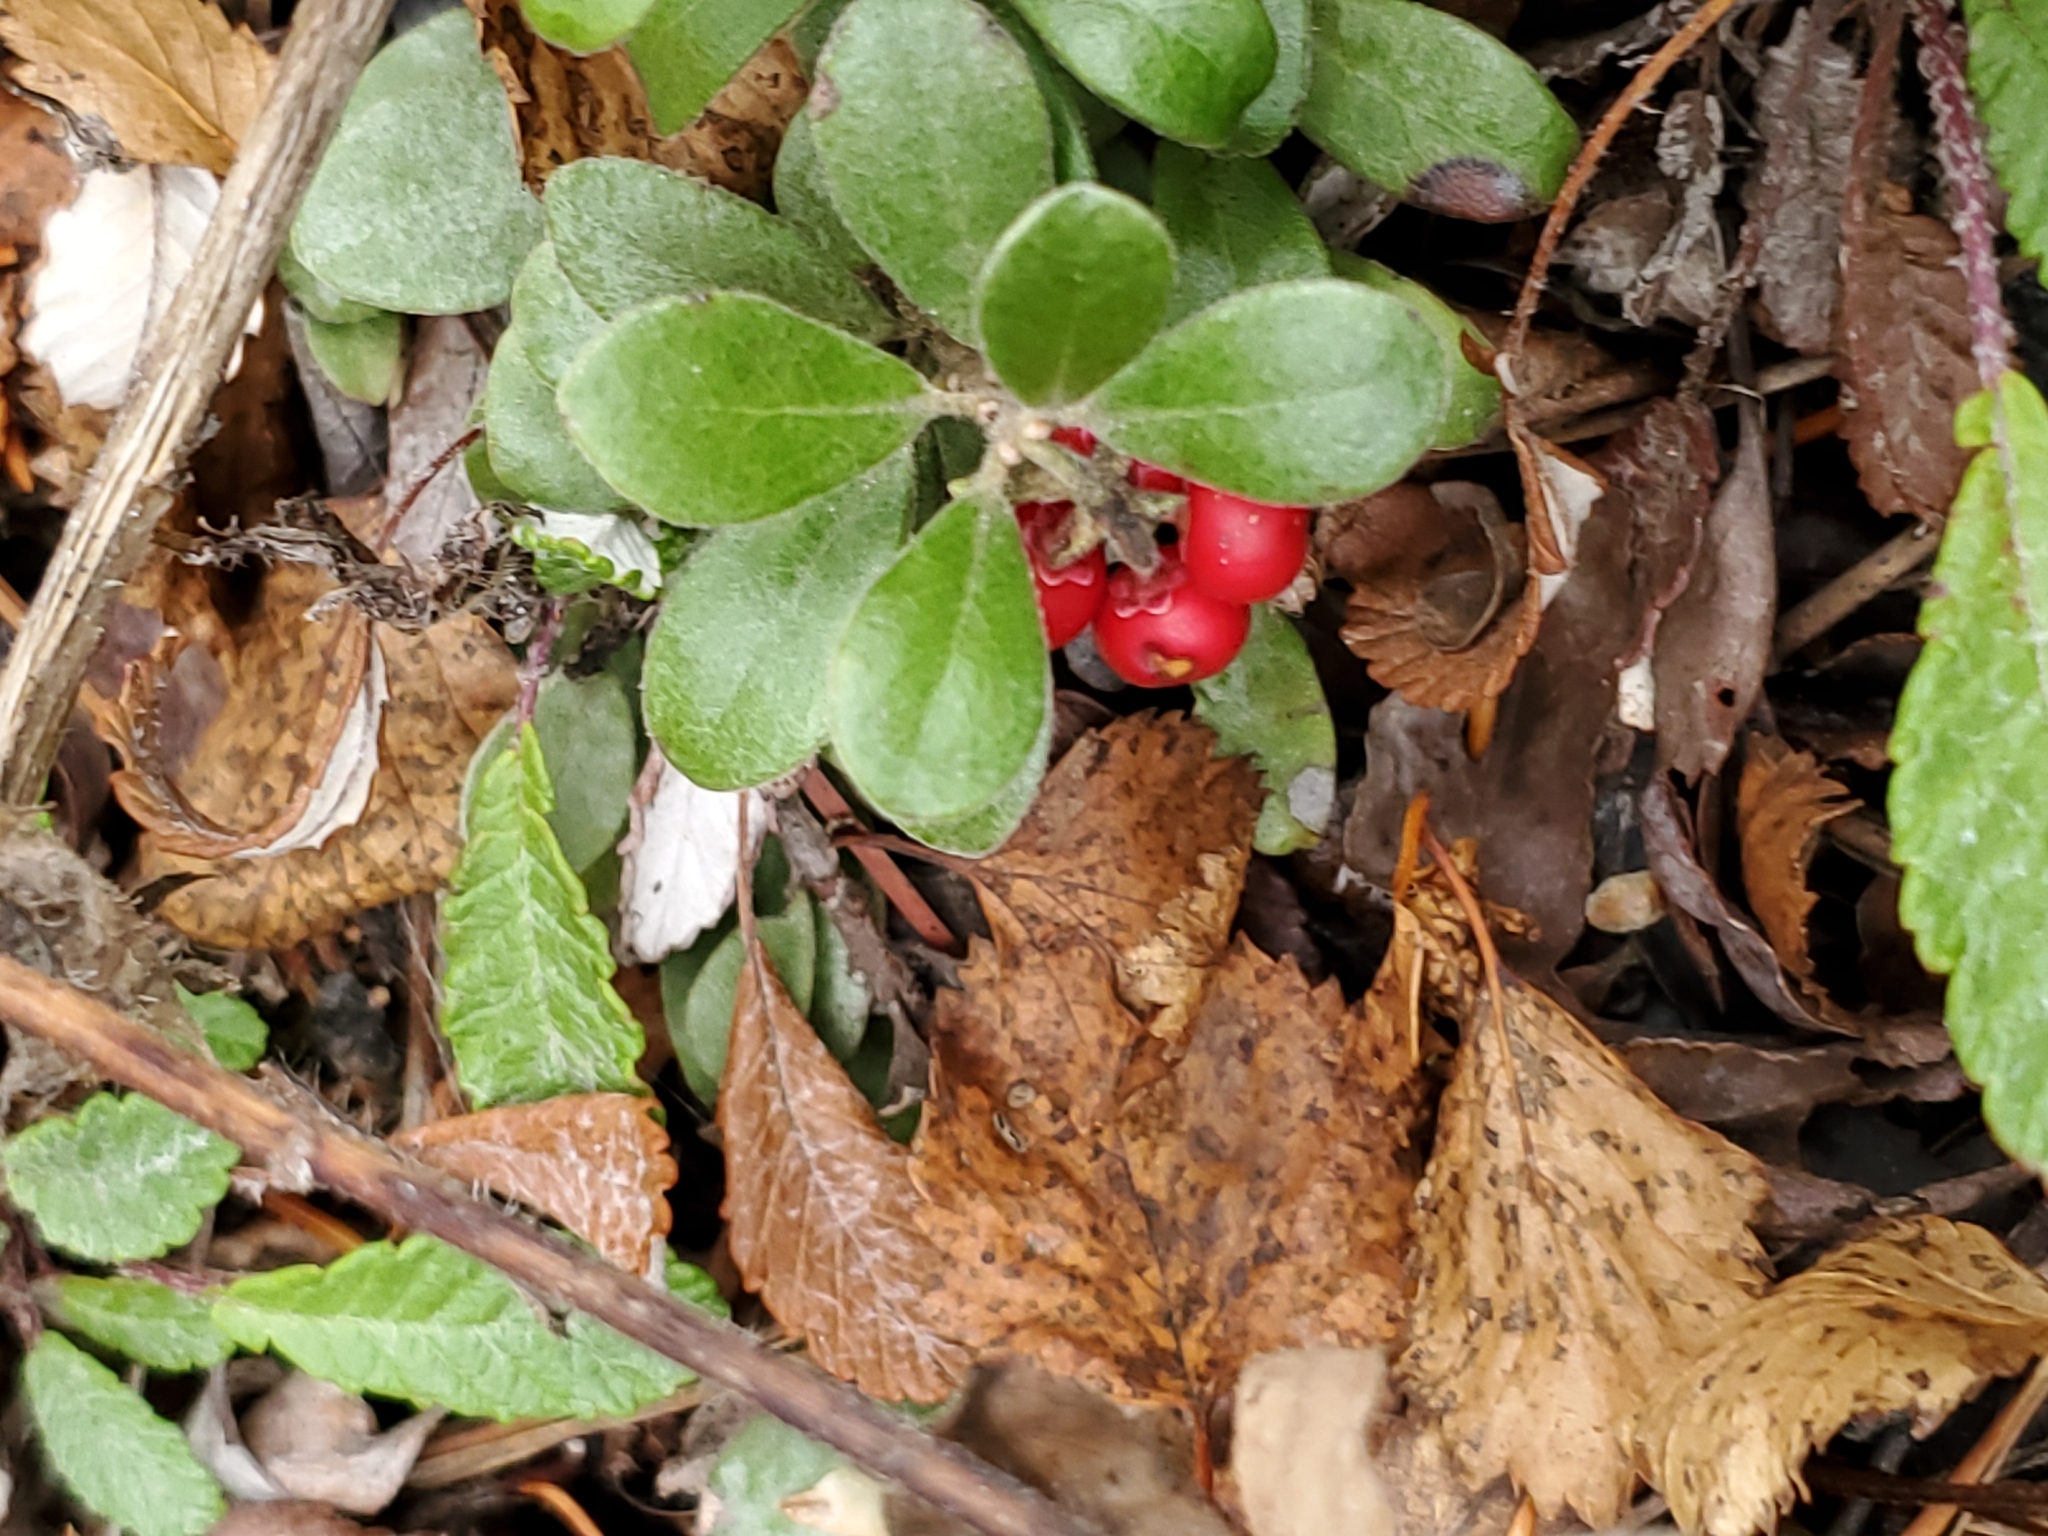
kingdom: Plantae
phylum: Tracheophyta
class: Magnoliopsida
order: Ericales
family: Ericaceae
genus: Arctostaphylos
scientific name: Arctostaphylos uva-ursi
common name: Bearberry
